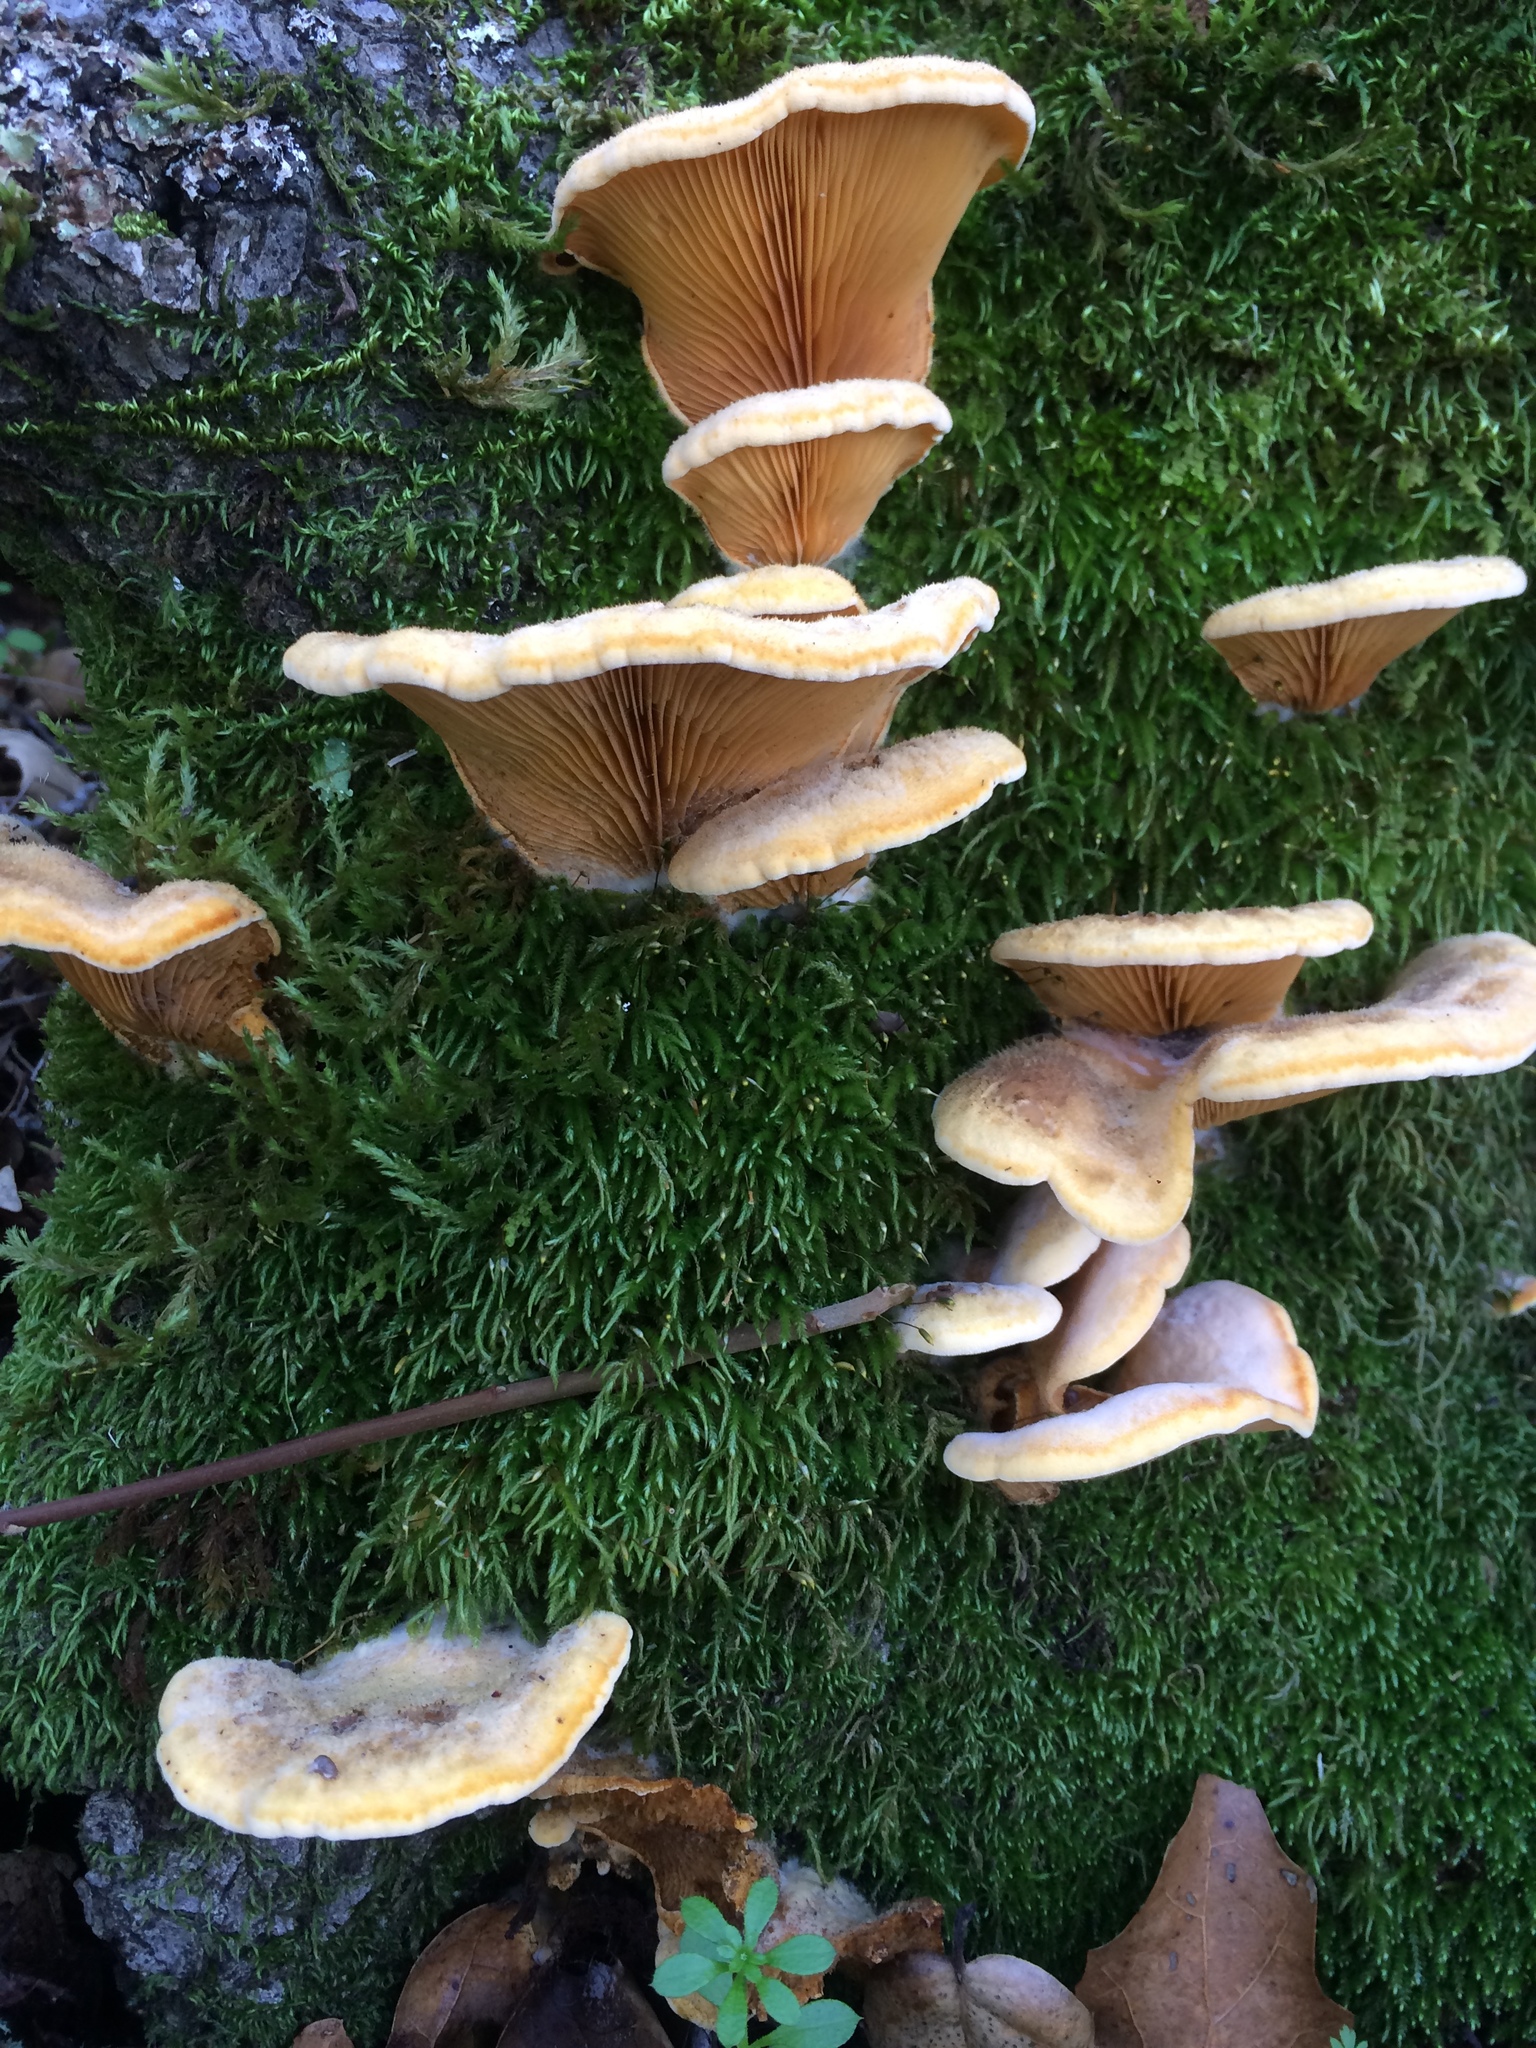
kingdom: Fungi
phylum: Basidiomycota
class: Agaricomycetes
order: Agaricales
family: Phyllotopsidaceae
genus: Phyllotopsis
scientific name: Phyllotopsis nidulans
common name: Orange mock oyster
